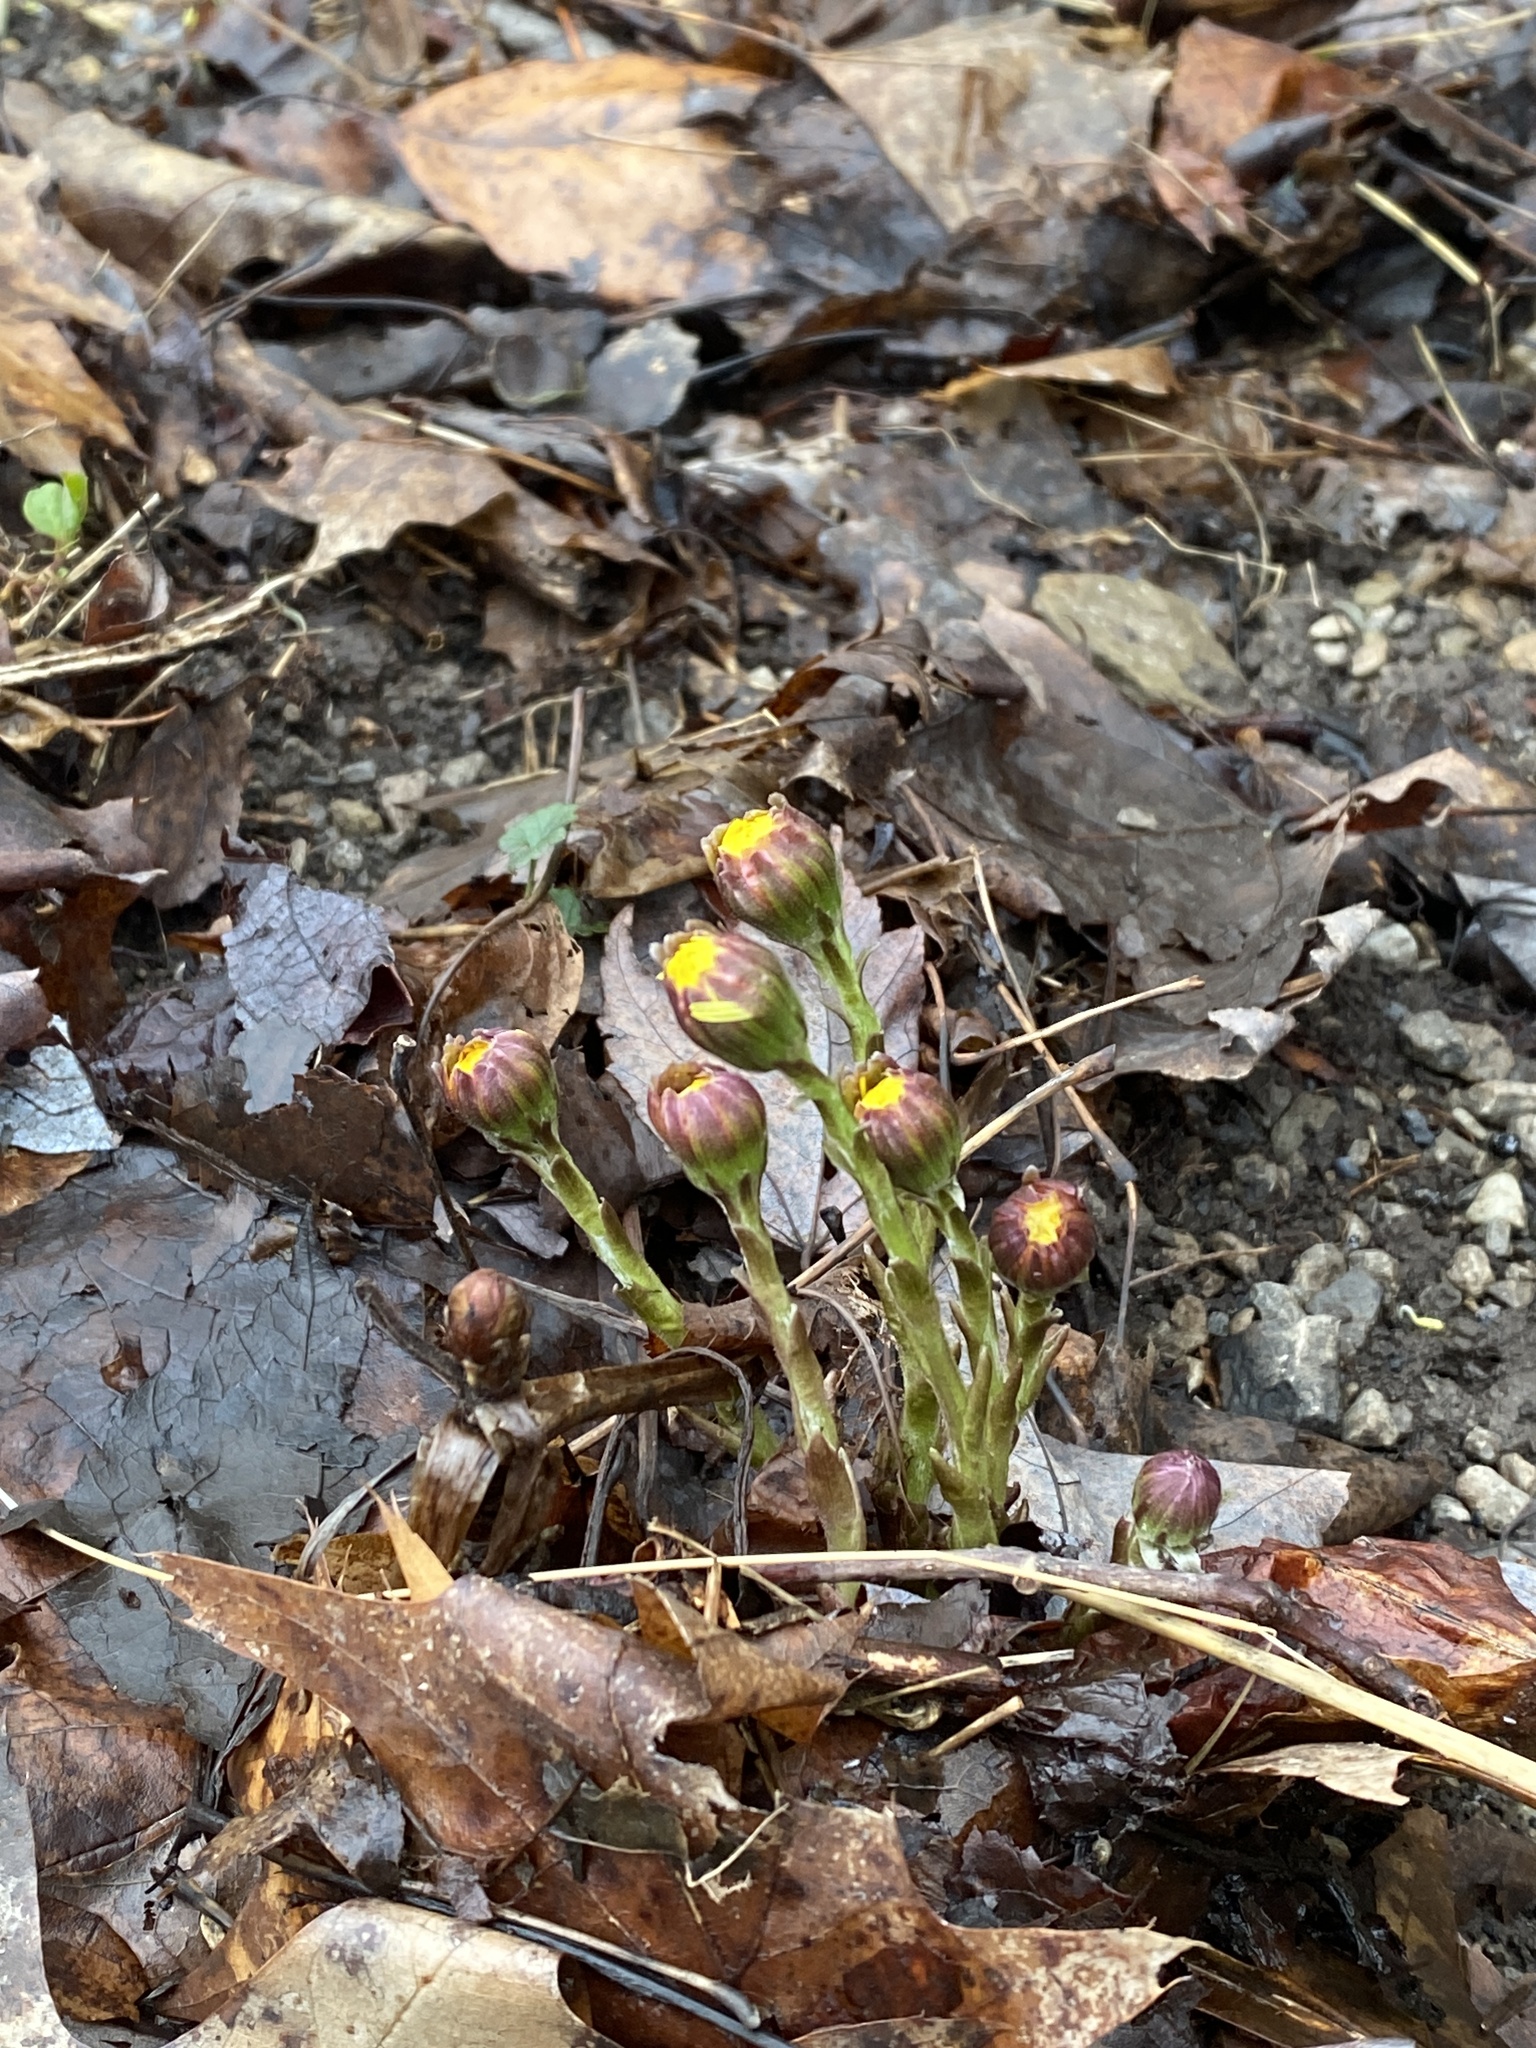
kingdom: Plantae
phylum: Tracheophyta
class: Magnoliopsida
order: Asterales
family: Asteraceae
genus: Tussilago
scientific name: Tussilago farfara
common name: Coltsfoot
